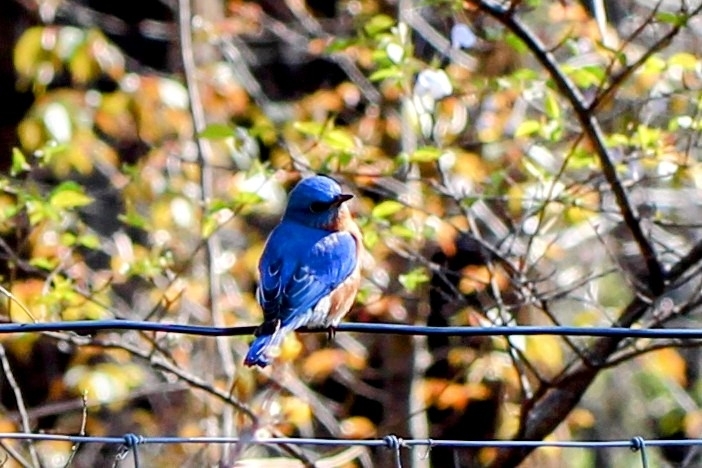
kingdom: Animalia
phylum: Chordata
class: Aves
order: Passeriformes
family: Turdidae
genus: Sialia
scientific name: Sialia sialis
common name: Eastern bluebird
